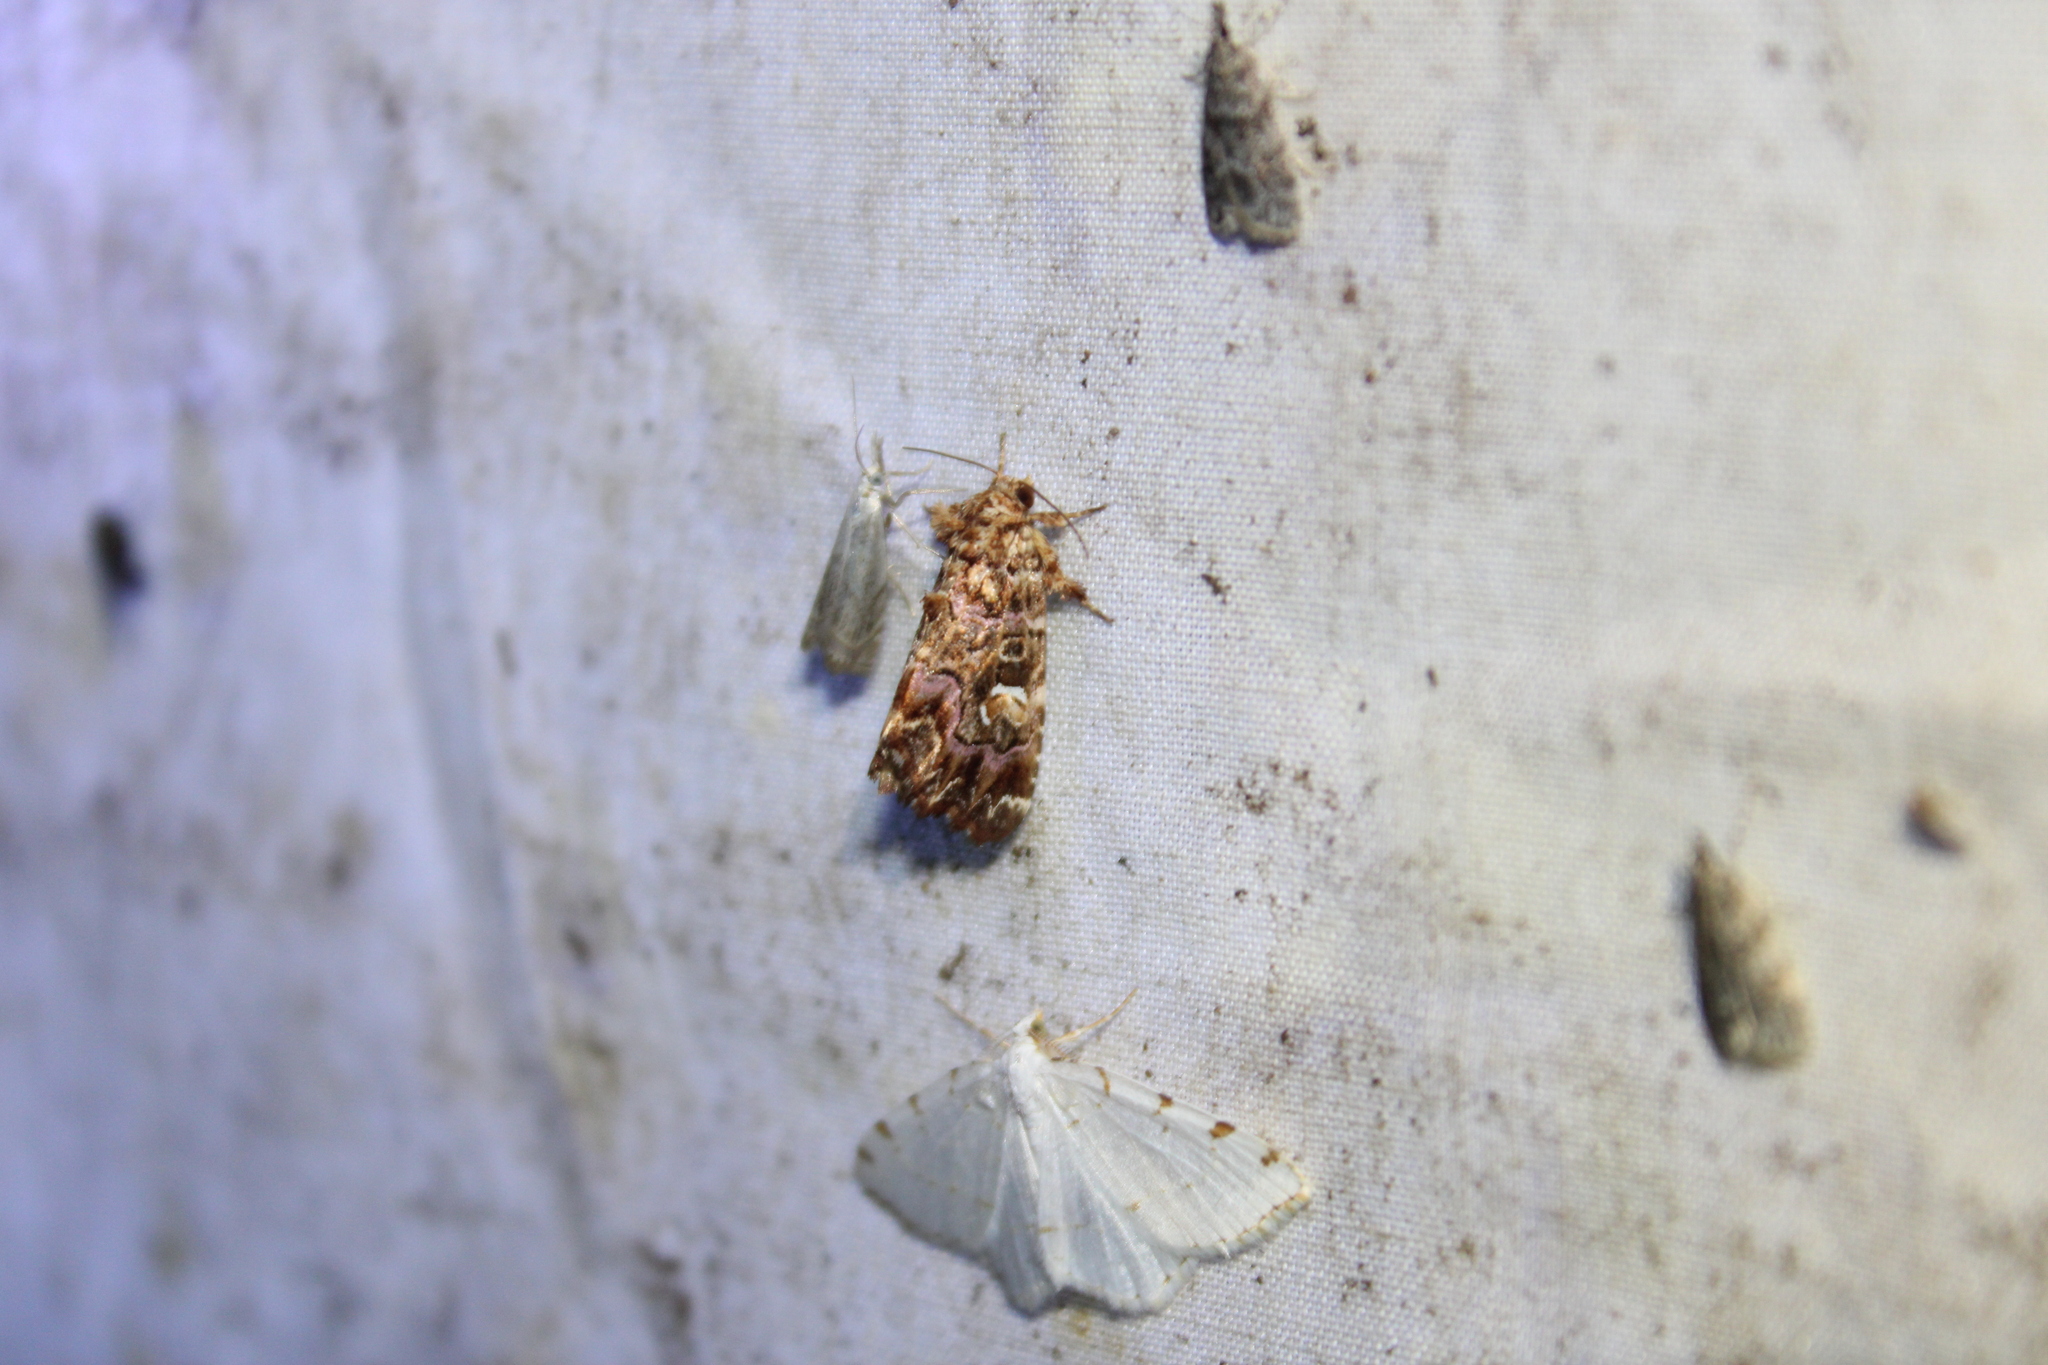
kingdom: Animalia
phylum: Arthropoda
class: Insecta
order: Lepidoptera
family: Noctuidae
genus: Callopistria
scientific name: Callopistria mollissima
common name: Pink-shaded fern moth
